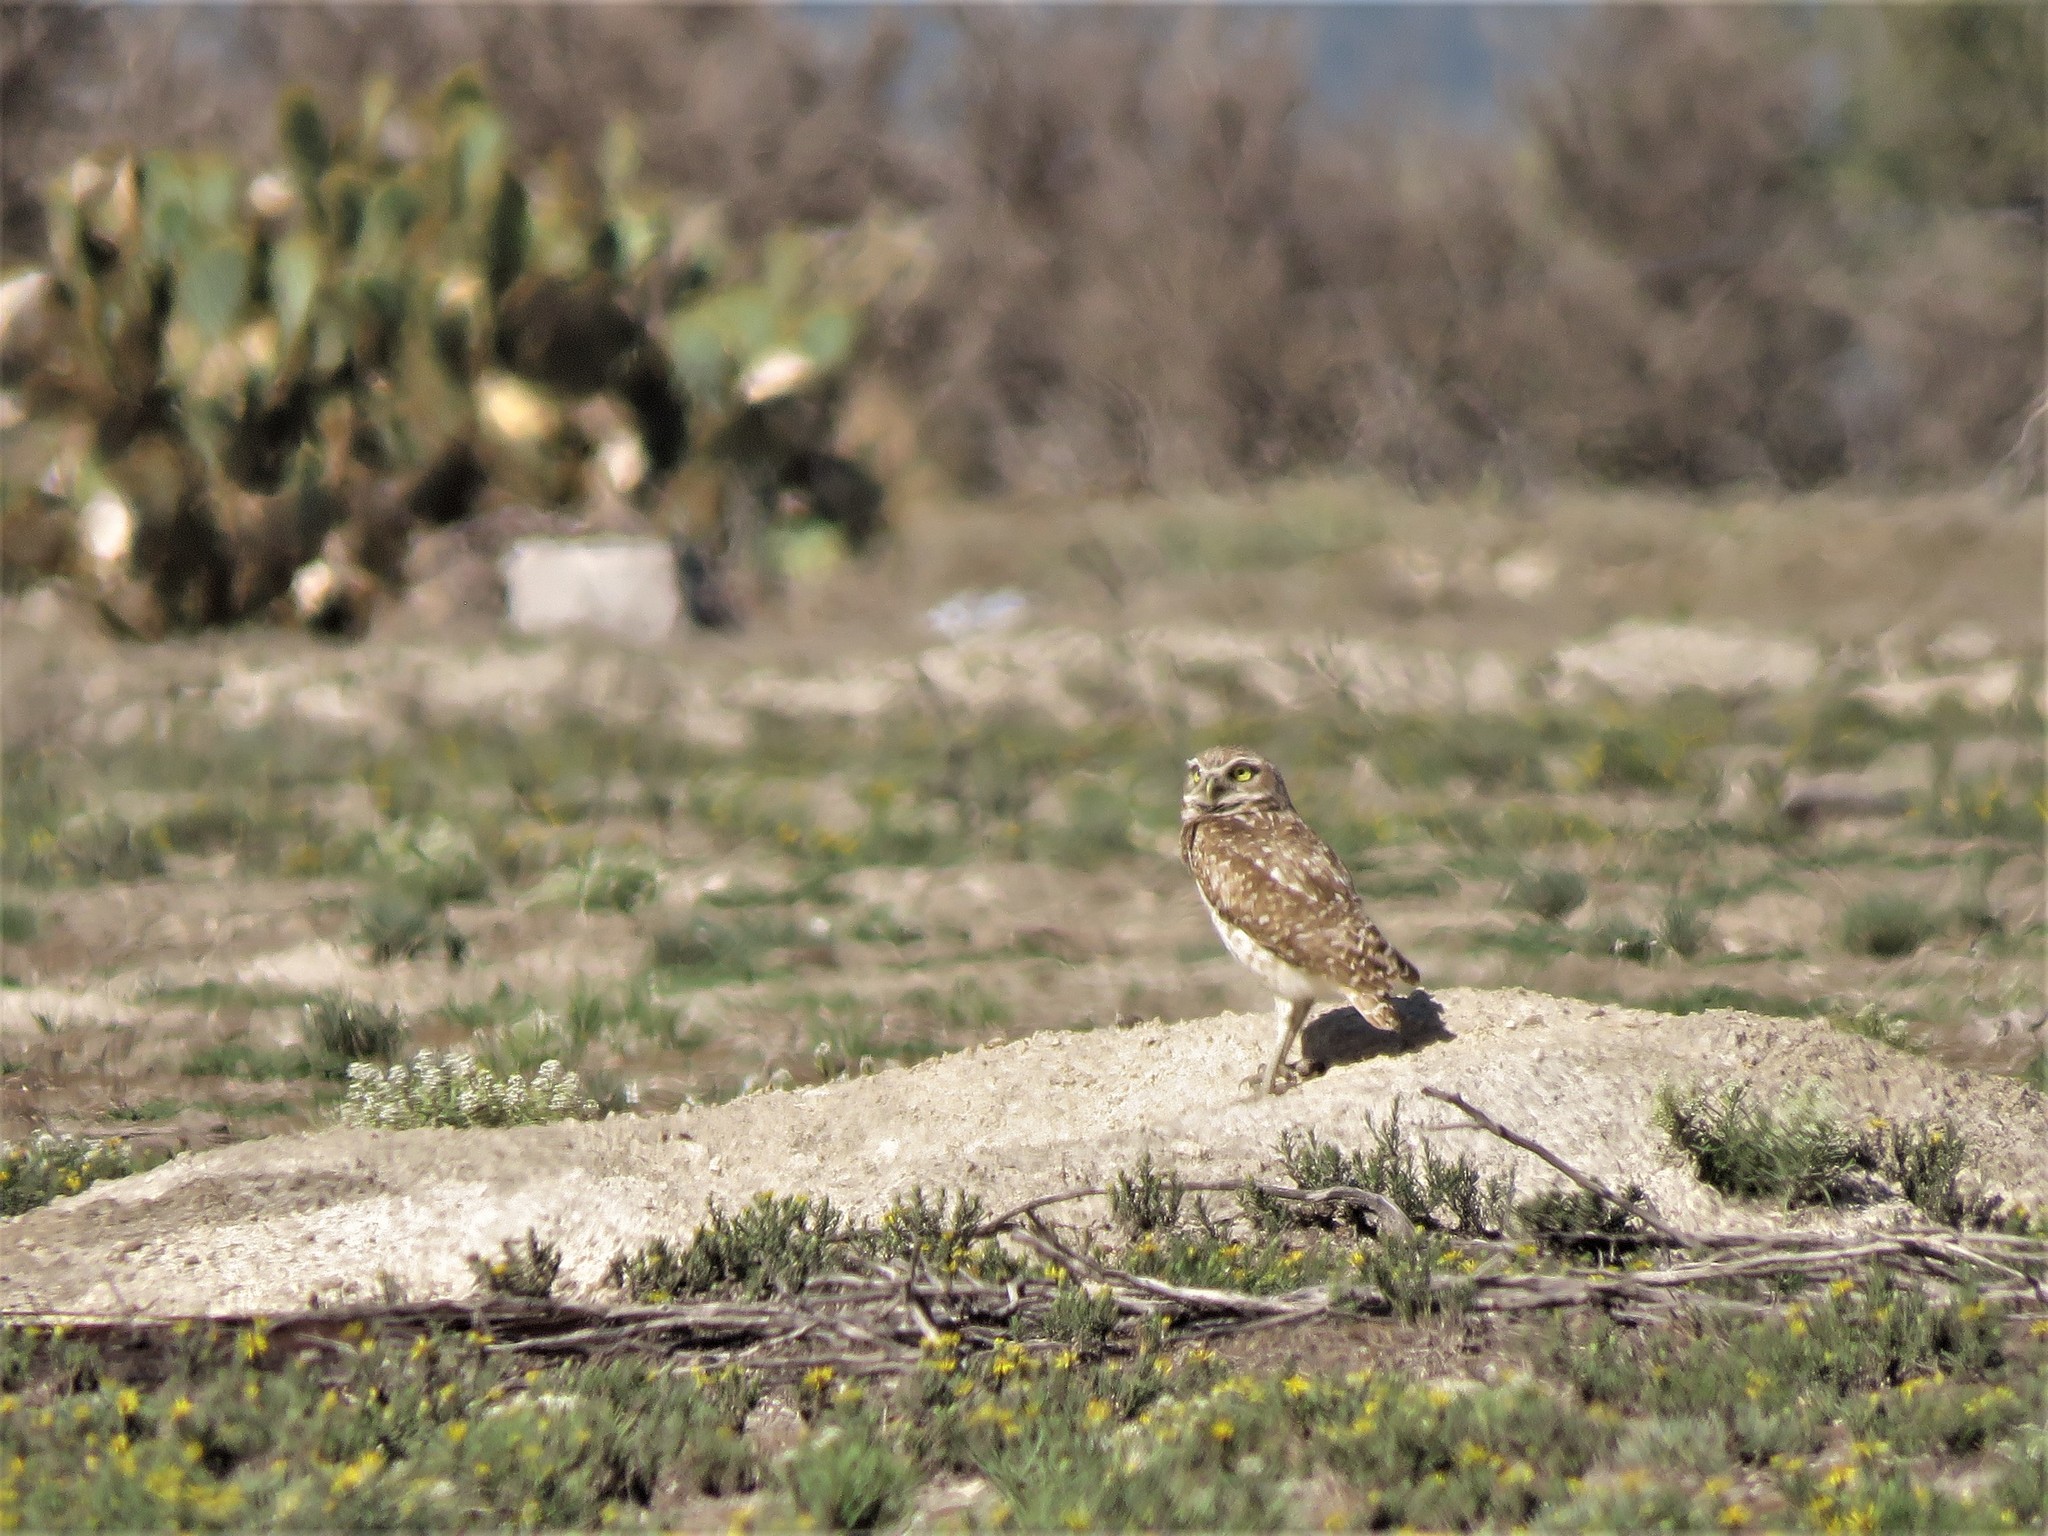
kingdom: Animalia
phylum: Chordata
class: Aves
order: Strigiformes
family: Strigidae
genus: Athene
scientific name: Athene cunicularia
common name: Burrowing owl
